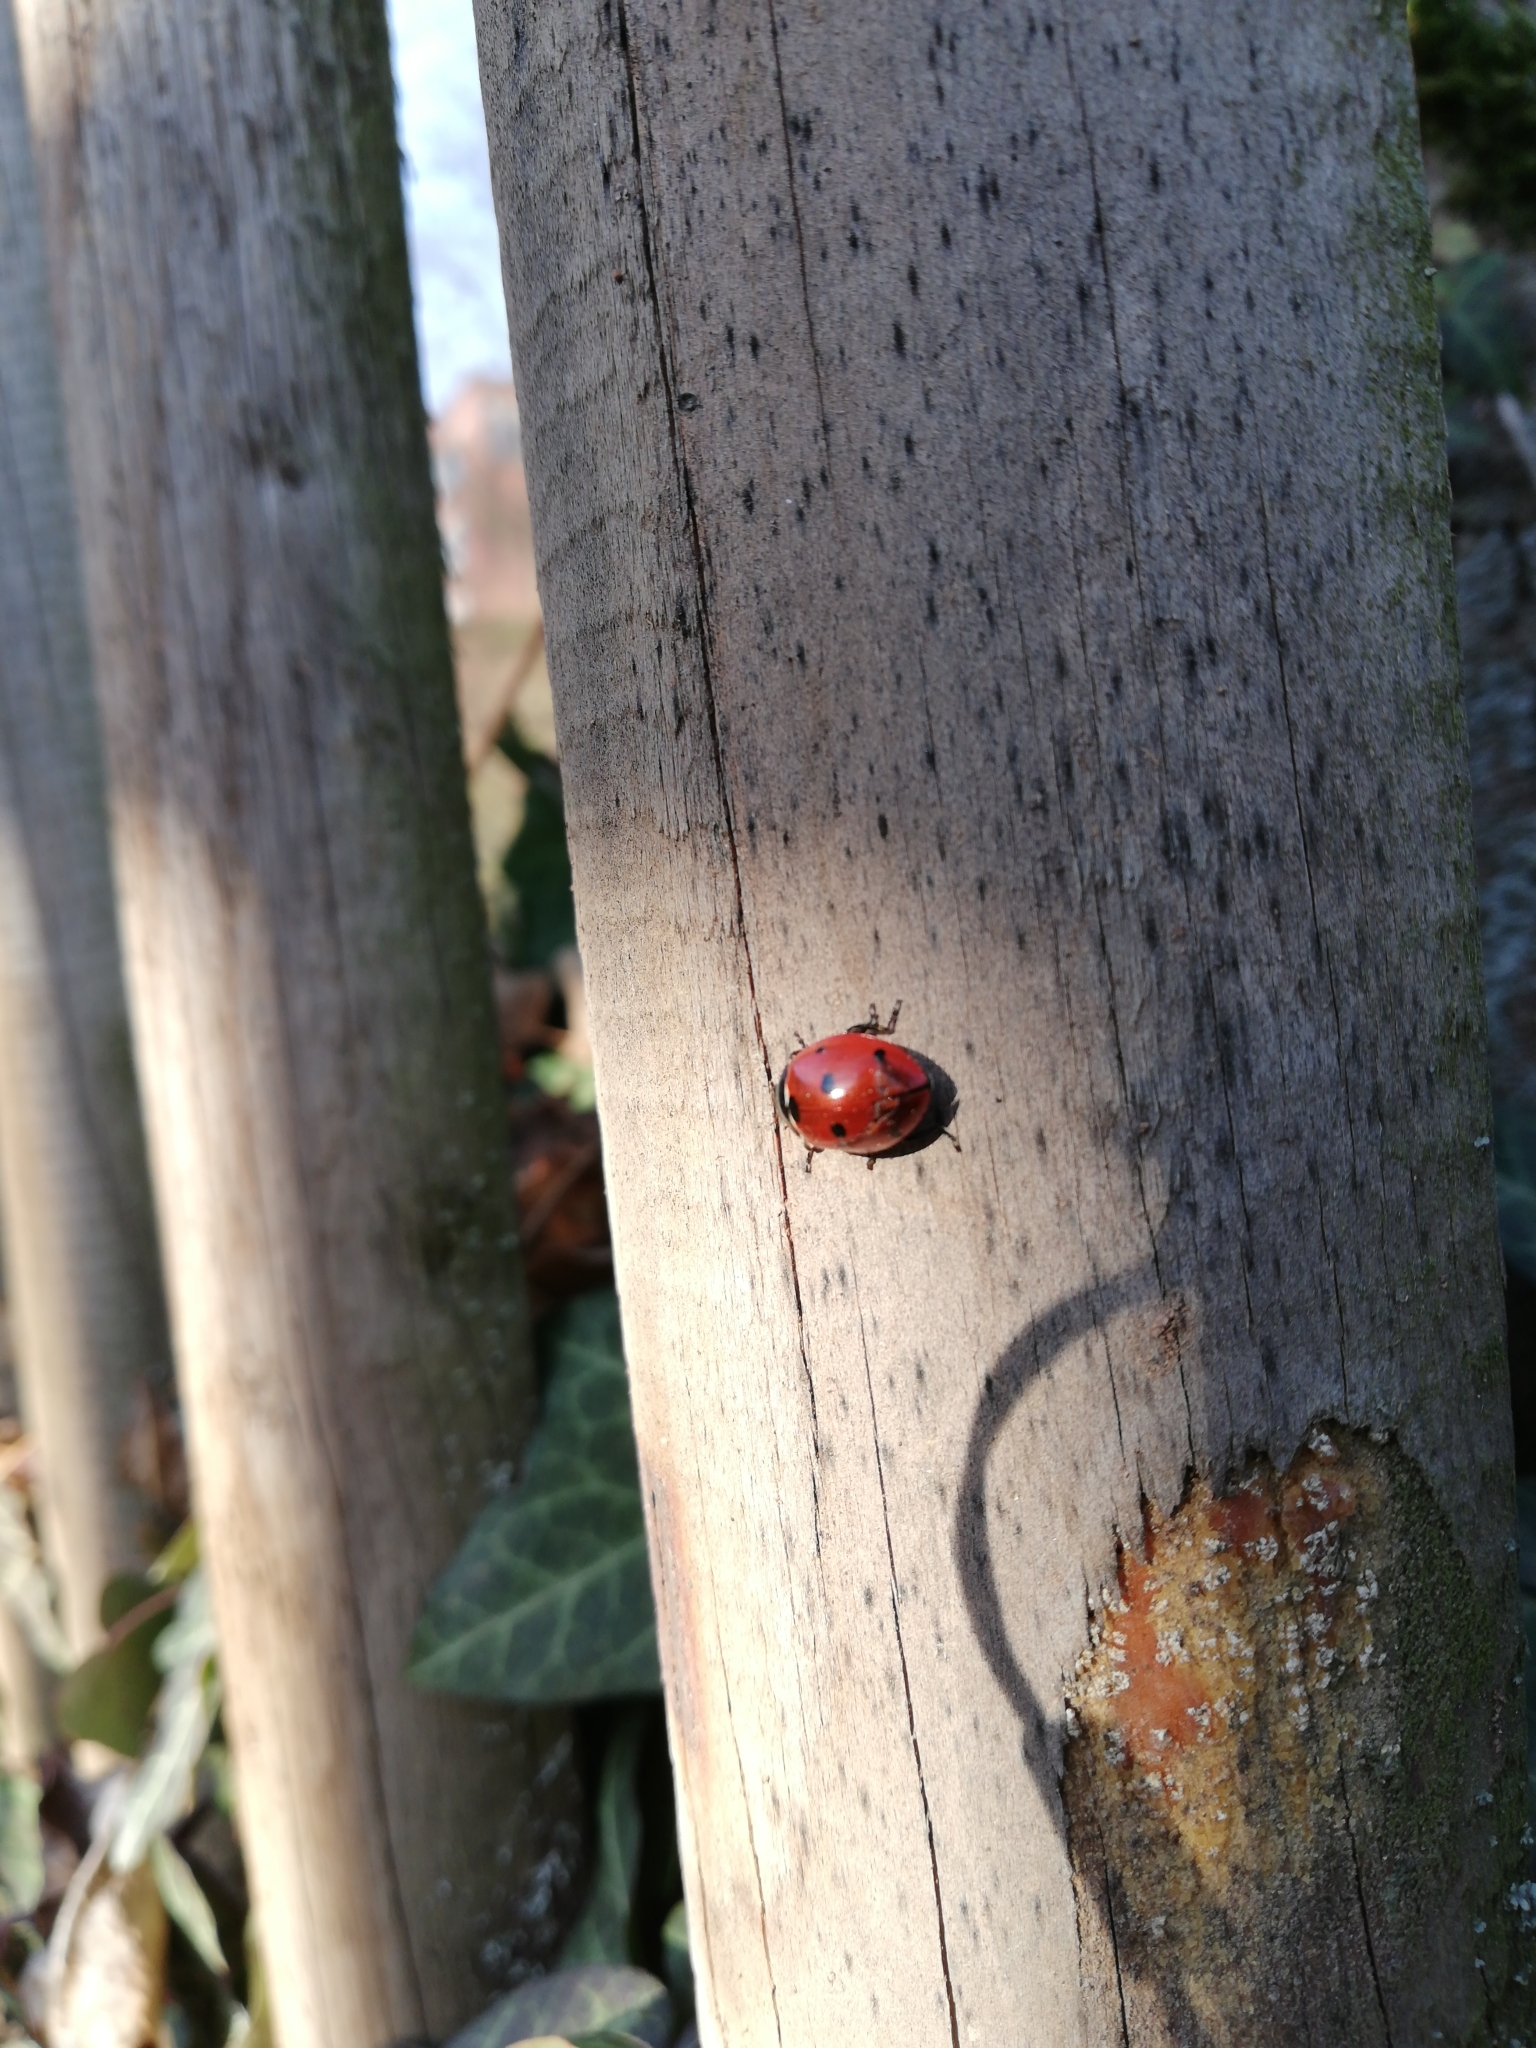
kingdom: Animalia
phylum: Arthropoda
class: Insecta
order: Coleoptera
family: Coccinellidae
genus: Coccinella
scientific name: Coccinella septempunctata
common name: Sevenspotted lady beetle
